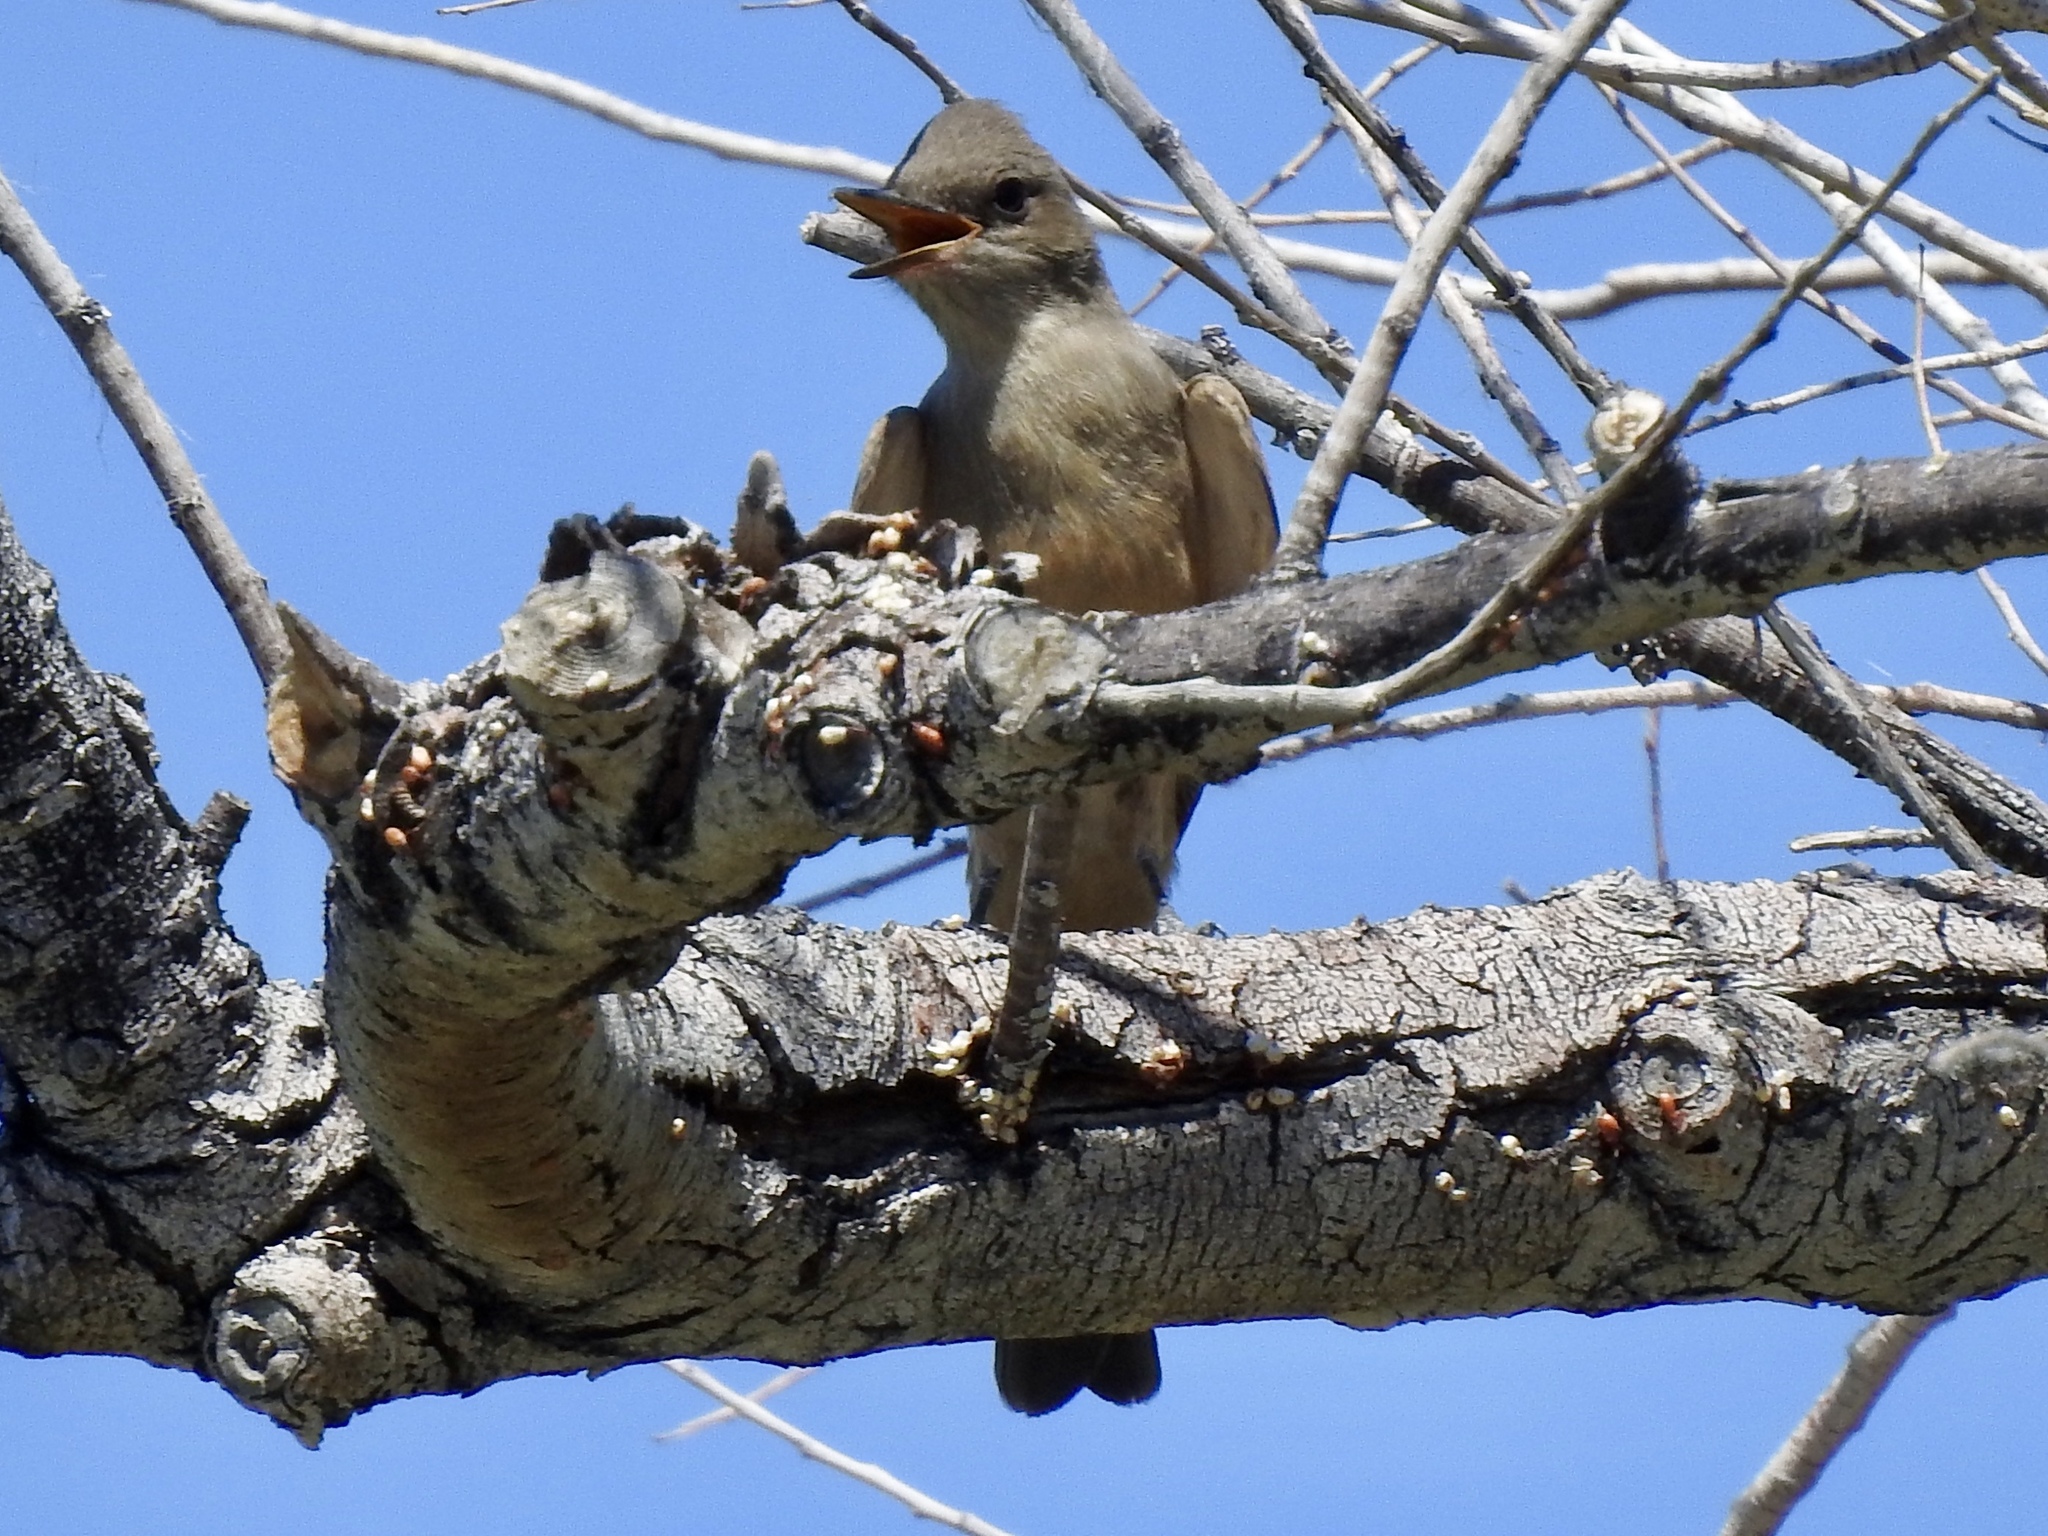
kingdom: Animalia
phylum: Chordata
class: Aves
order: Passeriformes
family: Tyrannidae
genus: Sayornis
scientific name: Sayornis saya
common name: Say's phoebe
